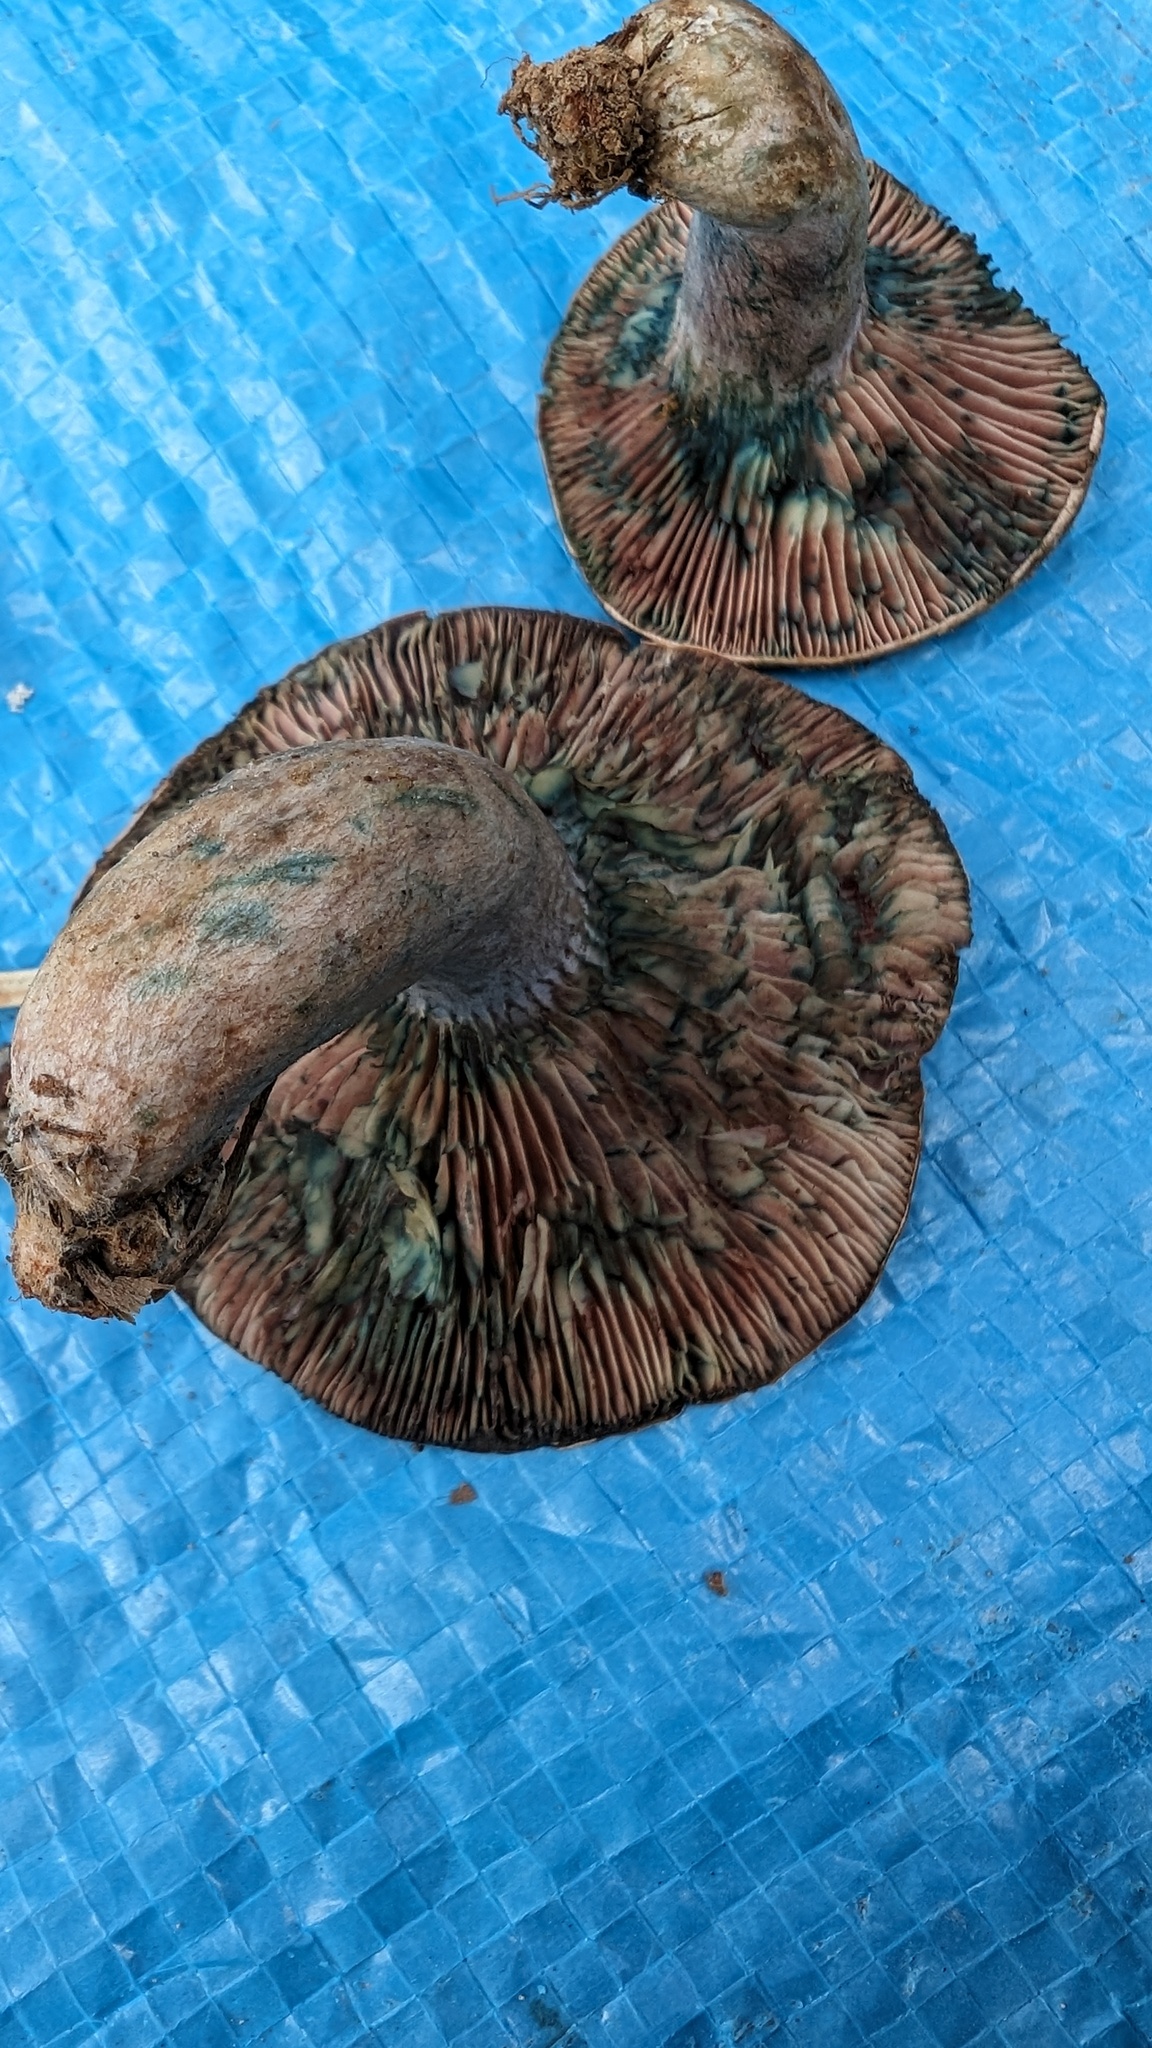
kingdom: Fungi
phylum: Basidiomycota
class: Agaricomycetes
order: Russulales
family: Russulaceae
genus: Lactarius
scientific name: Lactarius hatsudake
